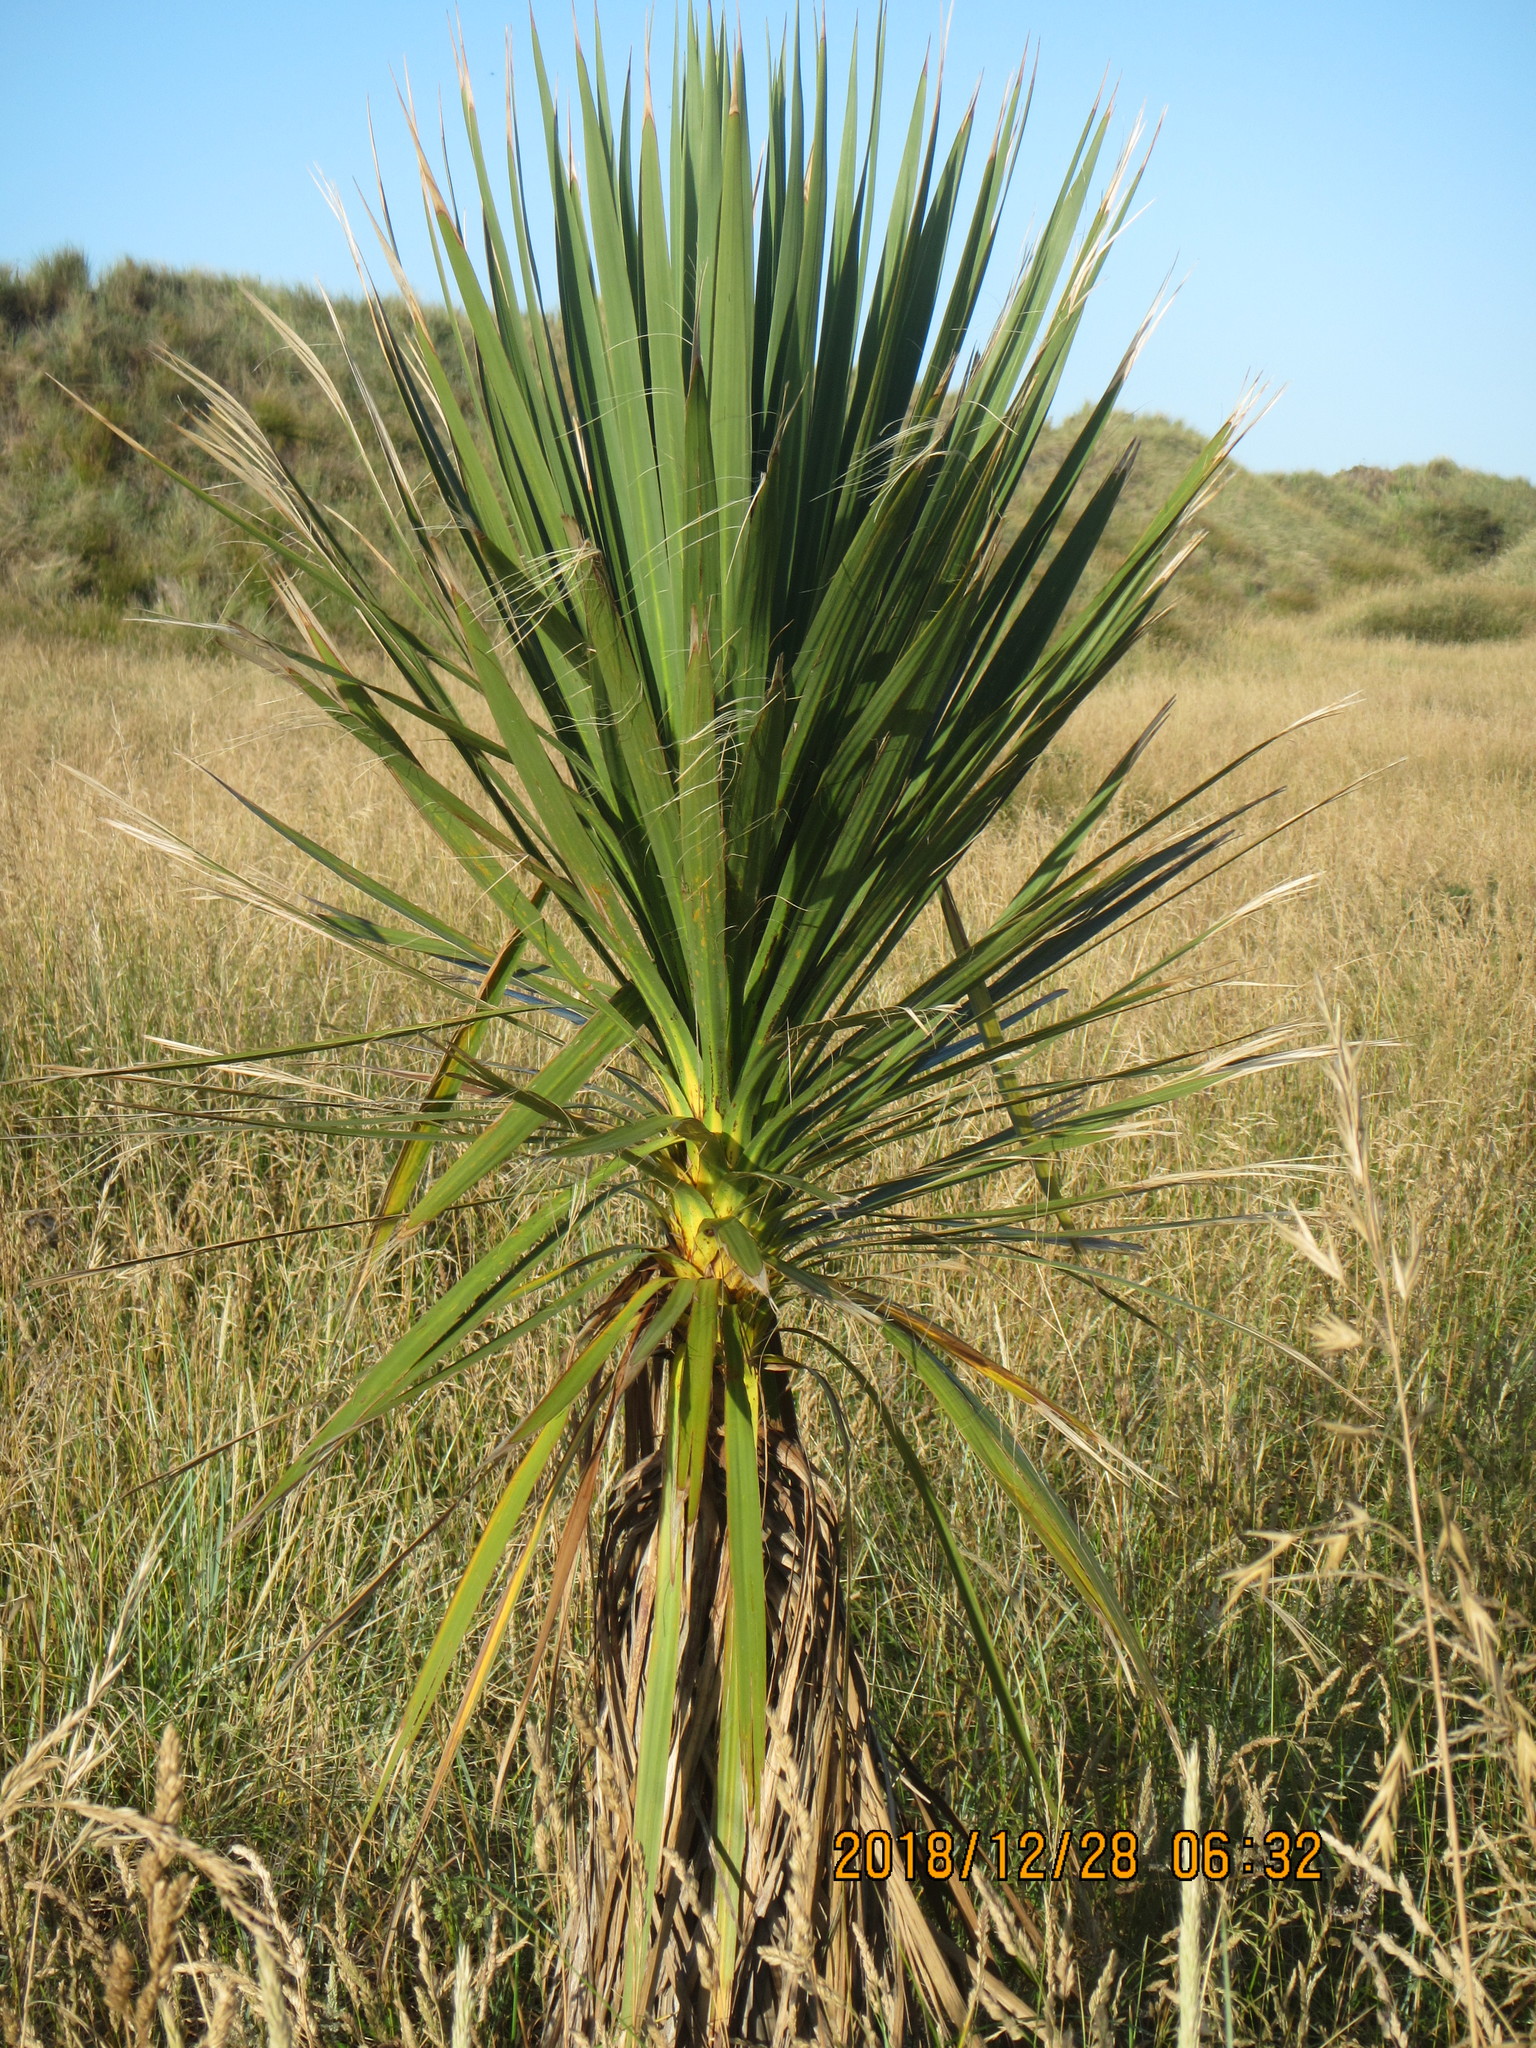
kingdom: Plantae
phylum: Tracheophyta
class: Liliopsida
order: Asparagales
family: Asparagaceae
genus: Cordyline
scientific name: Cordyline australis
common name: Cabbage-palm
